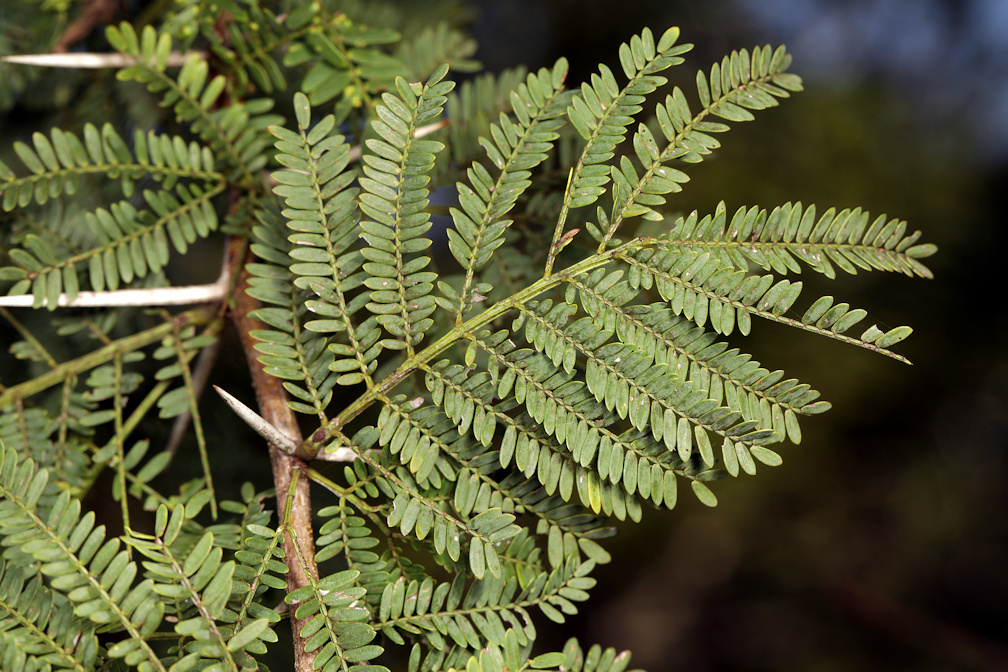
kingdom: Plantae
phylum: Tracheophyta
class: Magnoliopsida
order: Fabales
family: Fabaceae
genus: Vachellia
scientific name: Vachellia karroo
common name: Sweet thorn
